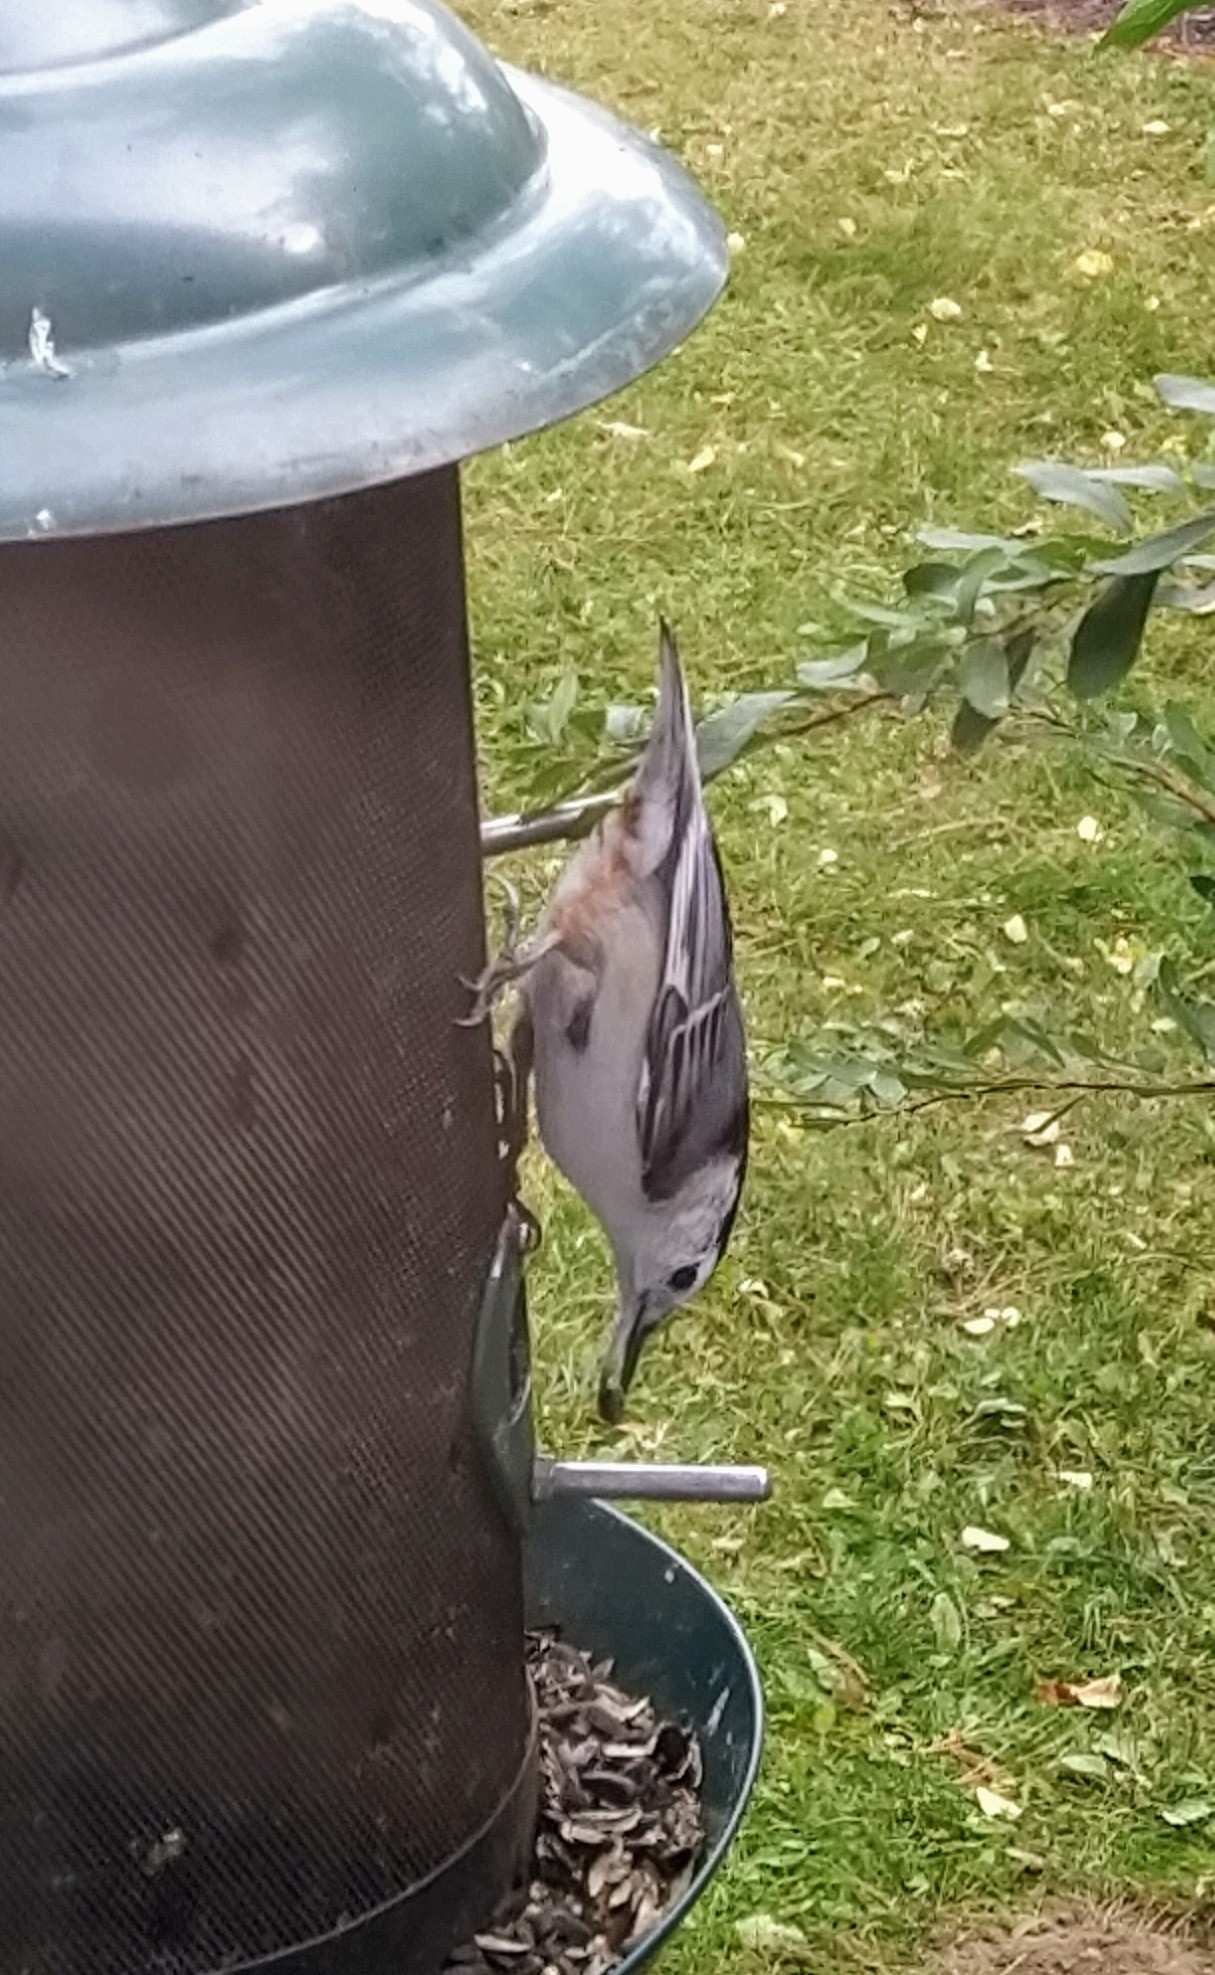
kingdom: Animalia
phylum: Chordata
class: Aves
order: Passeriformes
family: Sittidae
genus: Sitta
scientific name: Sitta carolinensis
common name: White-breasted nuthatch
